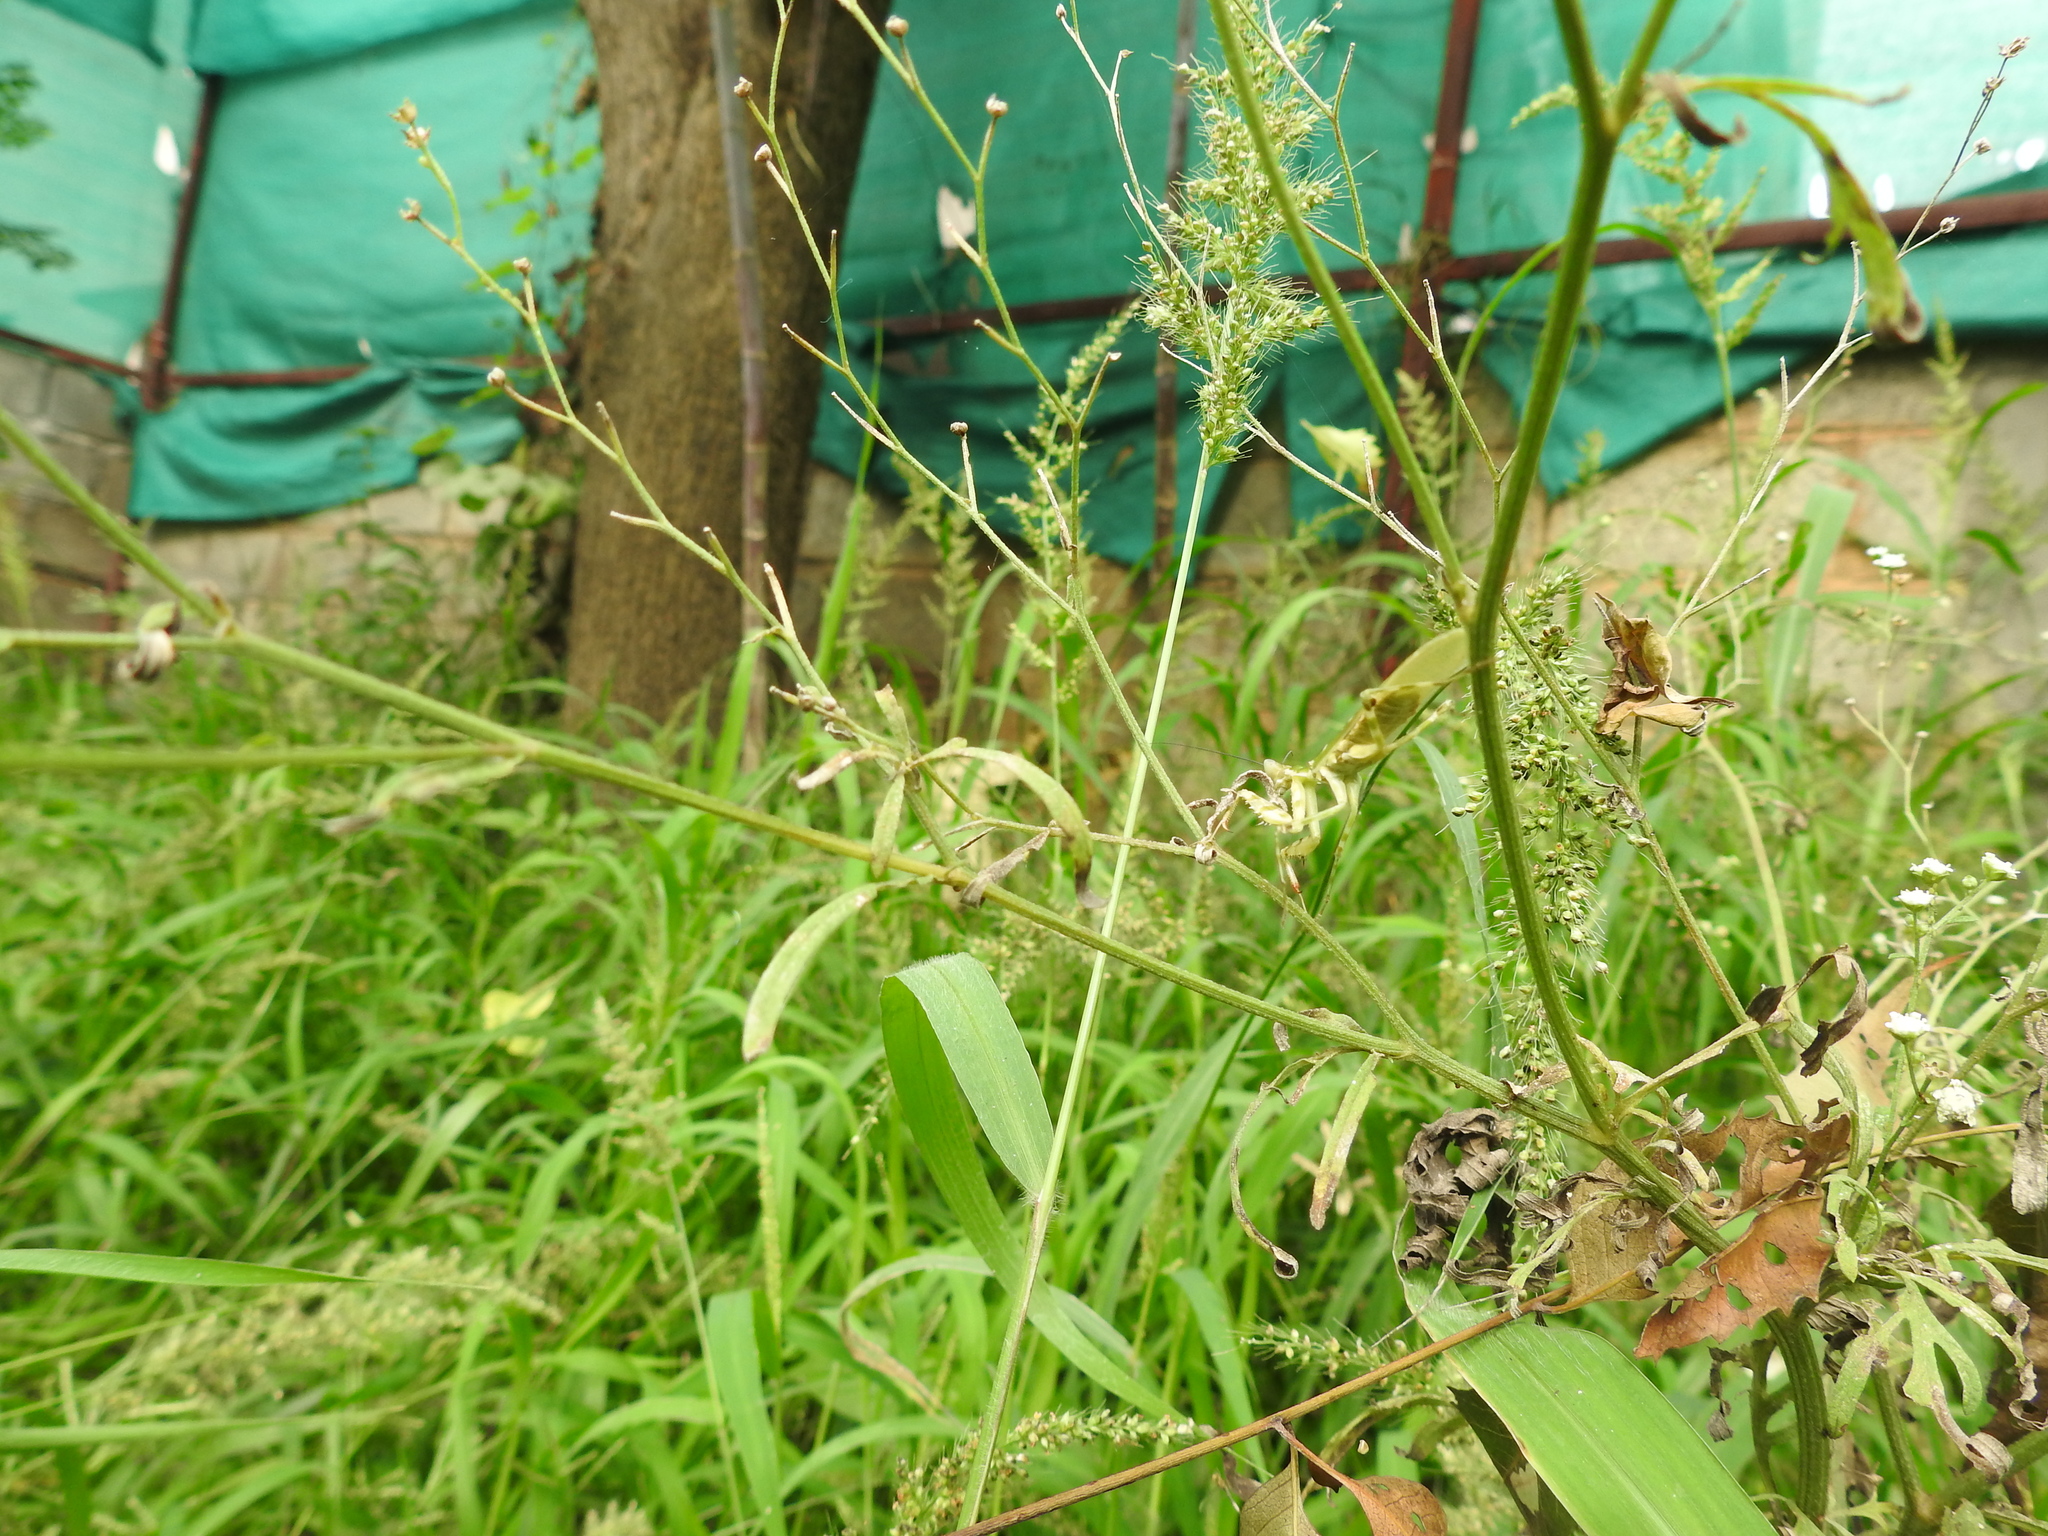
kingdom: Animalia
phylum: Arthropoda
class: Insecta
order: Mantodea
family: Hymenopodidae
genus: Creobroter
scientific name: Creobroter pictipennis
